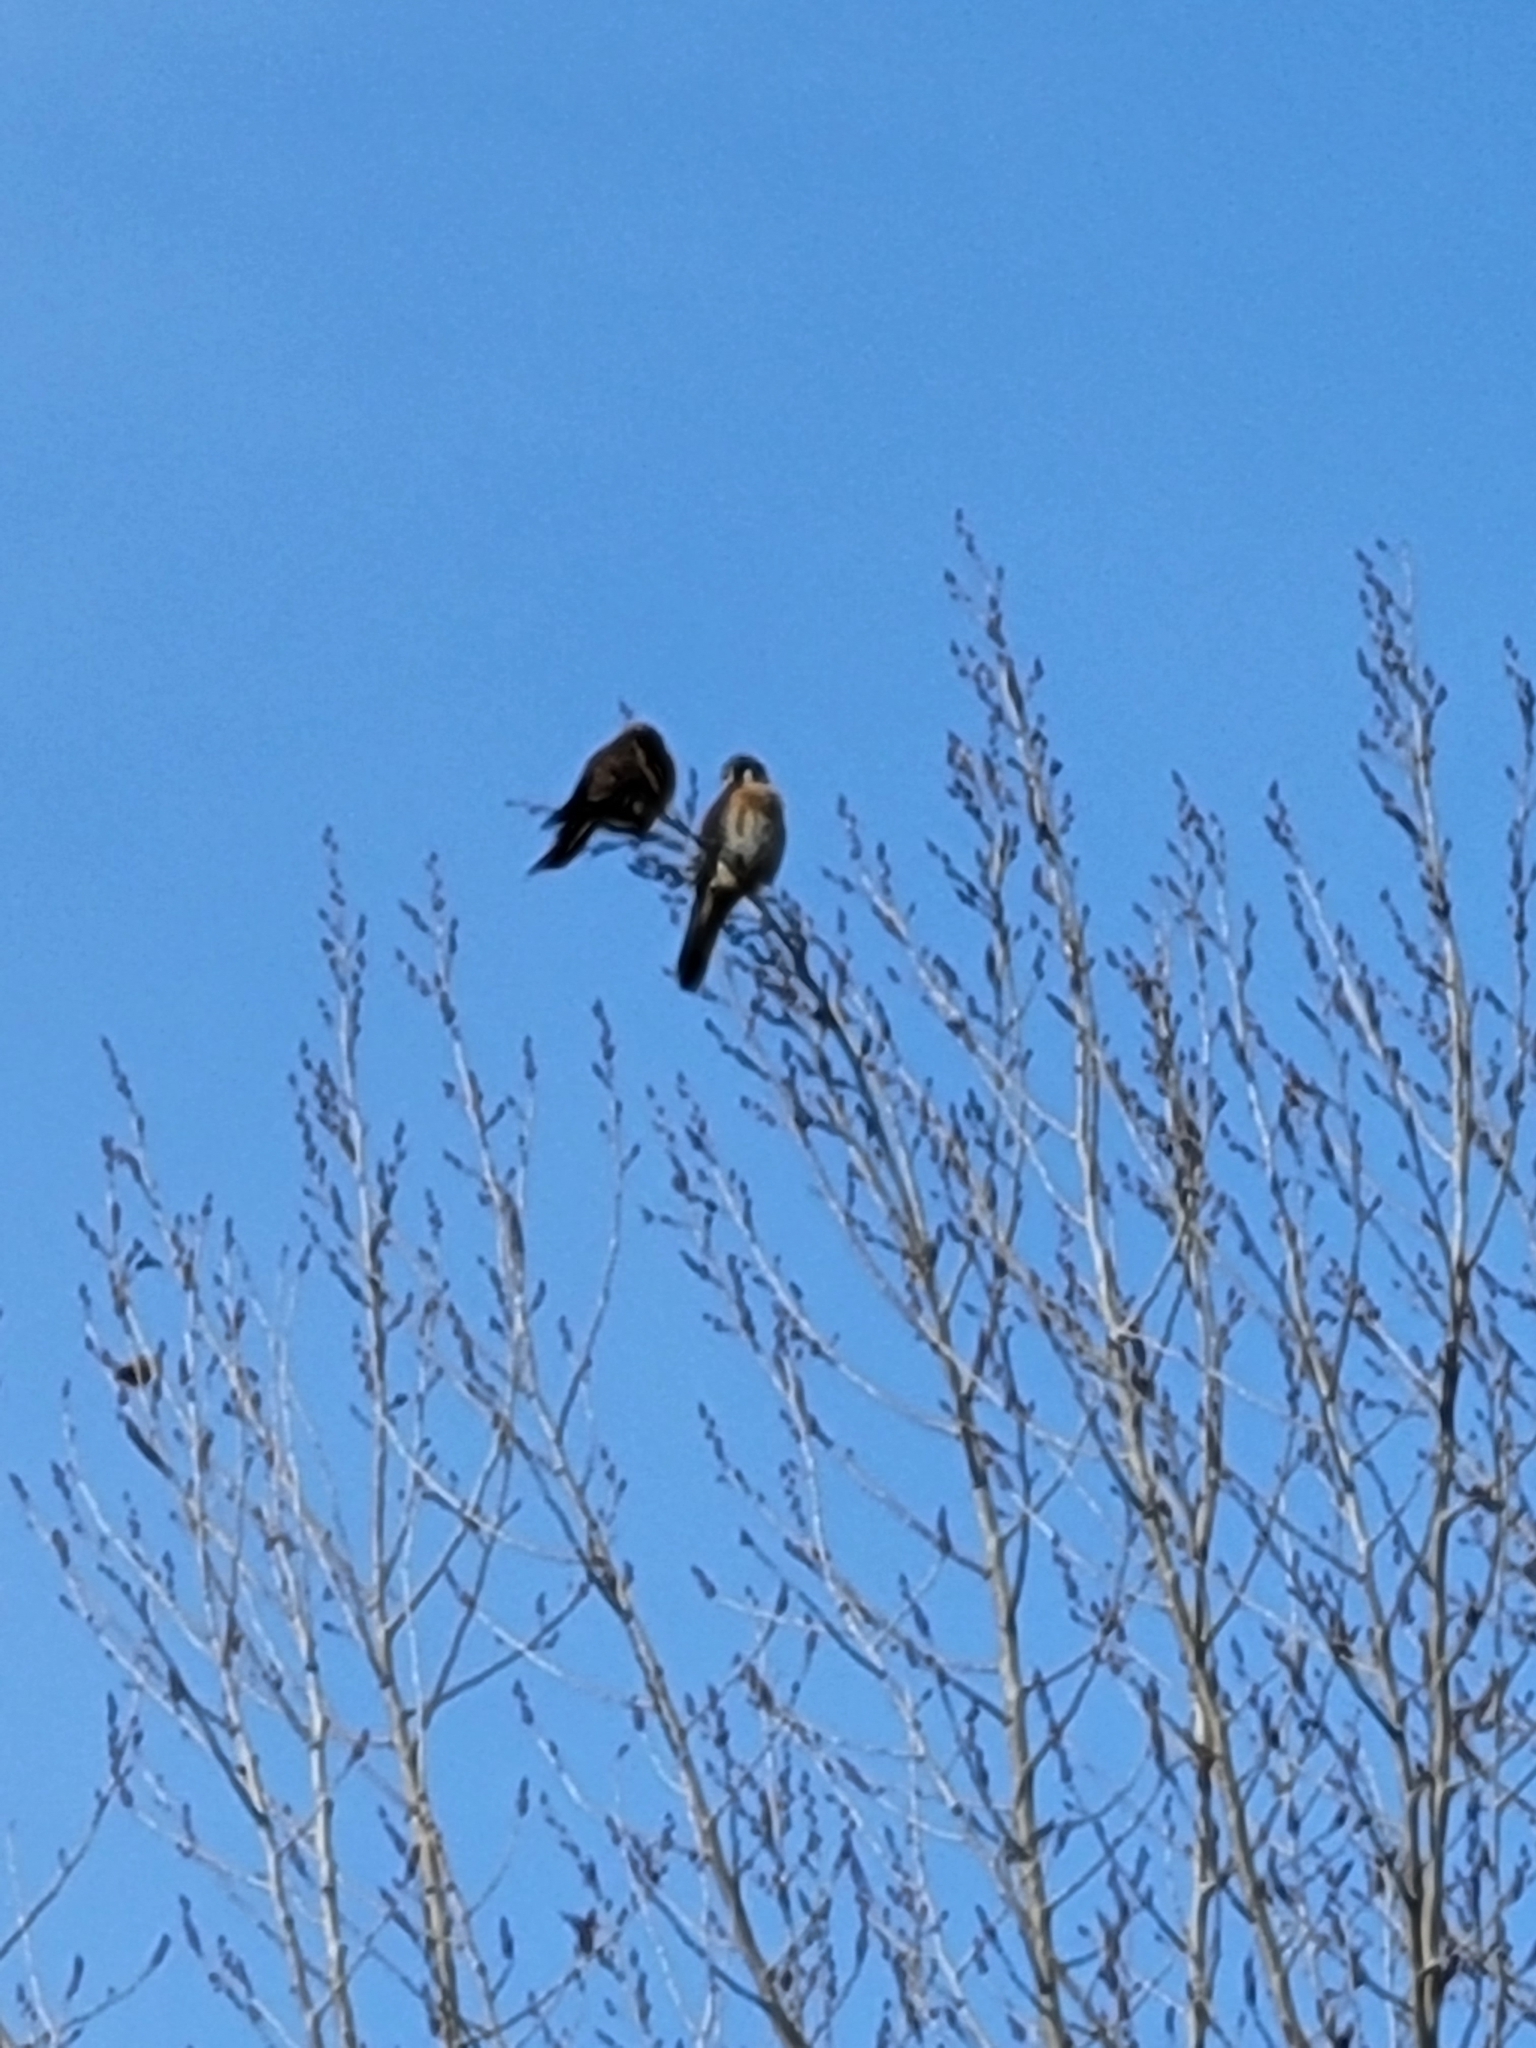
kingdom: Animalia
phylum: Chordata
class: Aves
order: Falconiformes
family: Falconidae
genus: Falco
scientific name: Falco sparverius
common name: American kestrel
